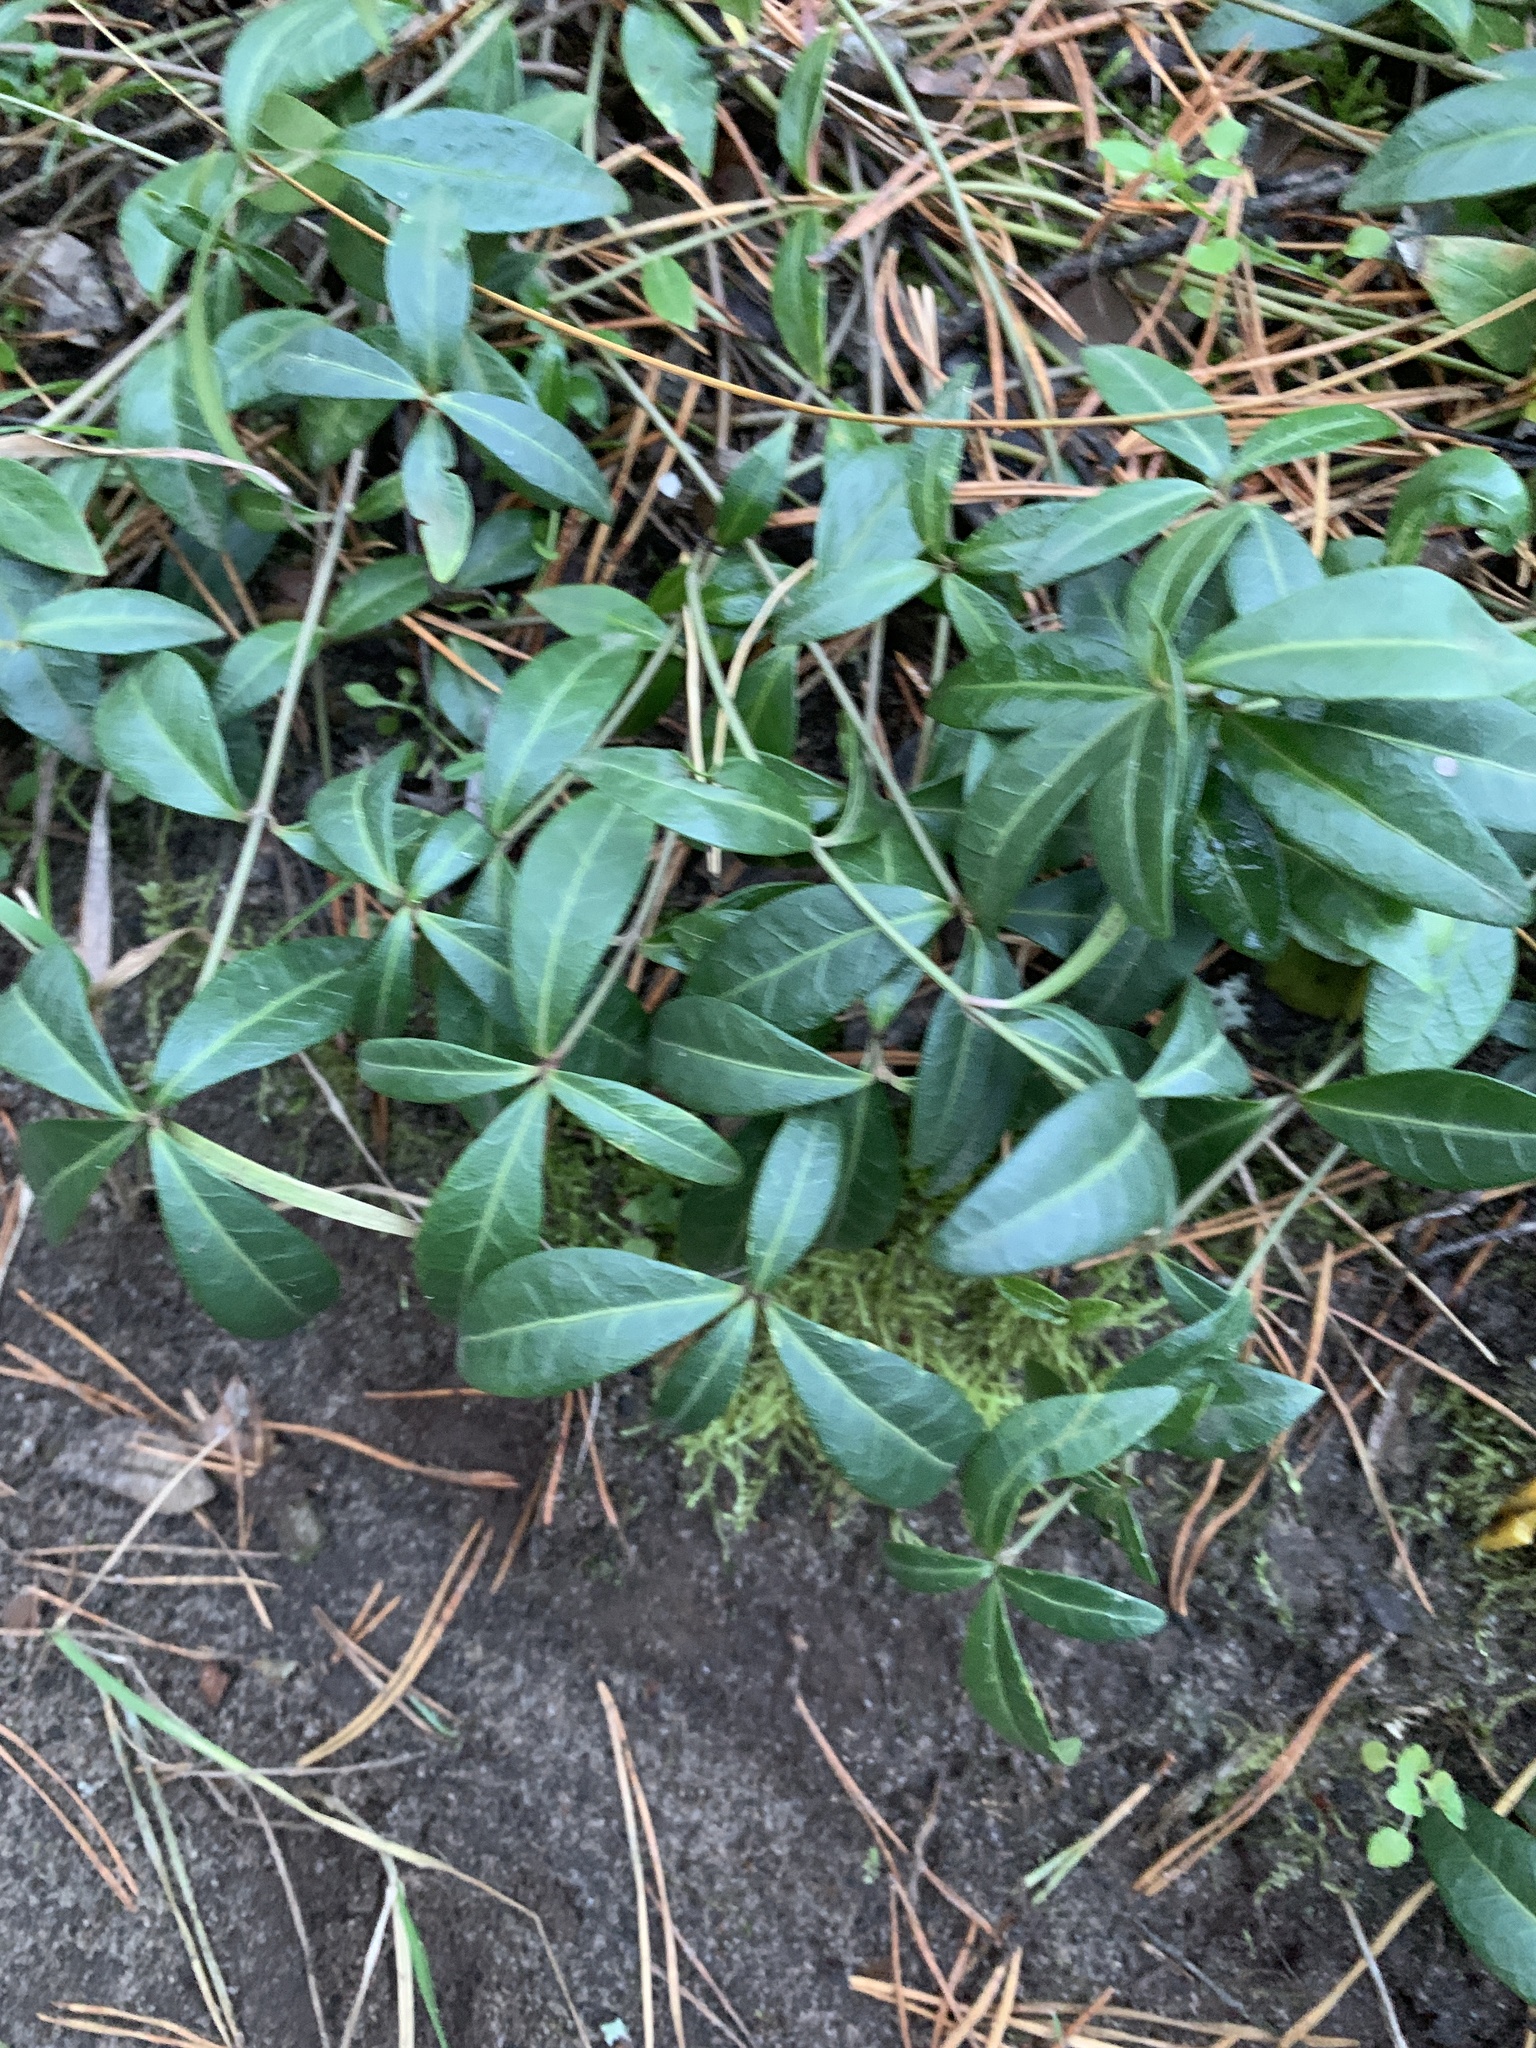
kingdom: Plantae
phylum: Tracheophyta
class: Magnoliopsida
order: Gentianales
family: Apocynaceae
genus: Vinca
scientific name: Vinca minor
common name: Lesser periwinkle
